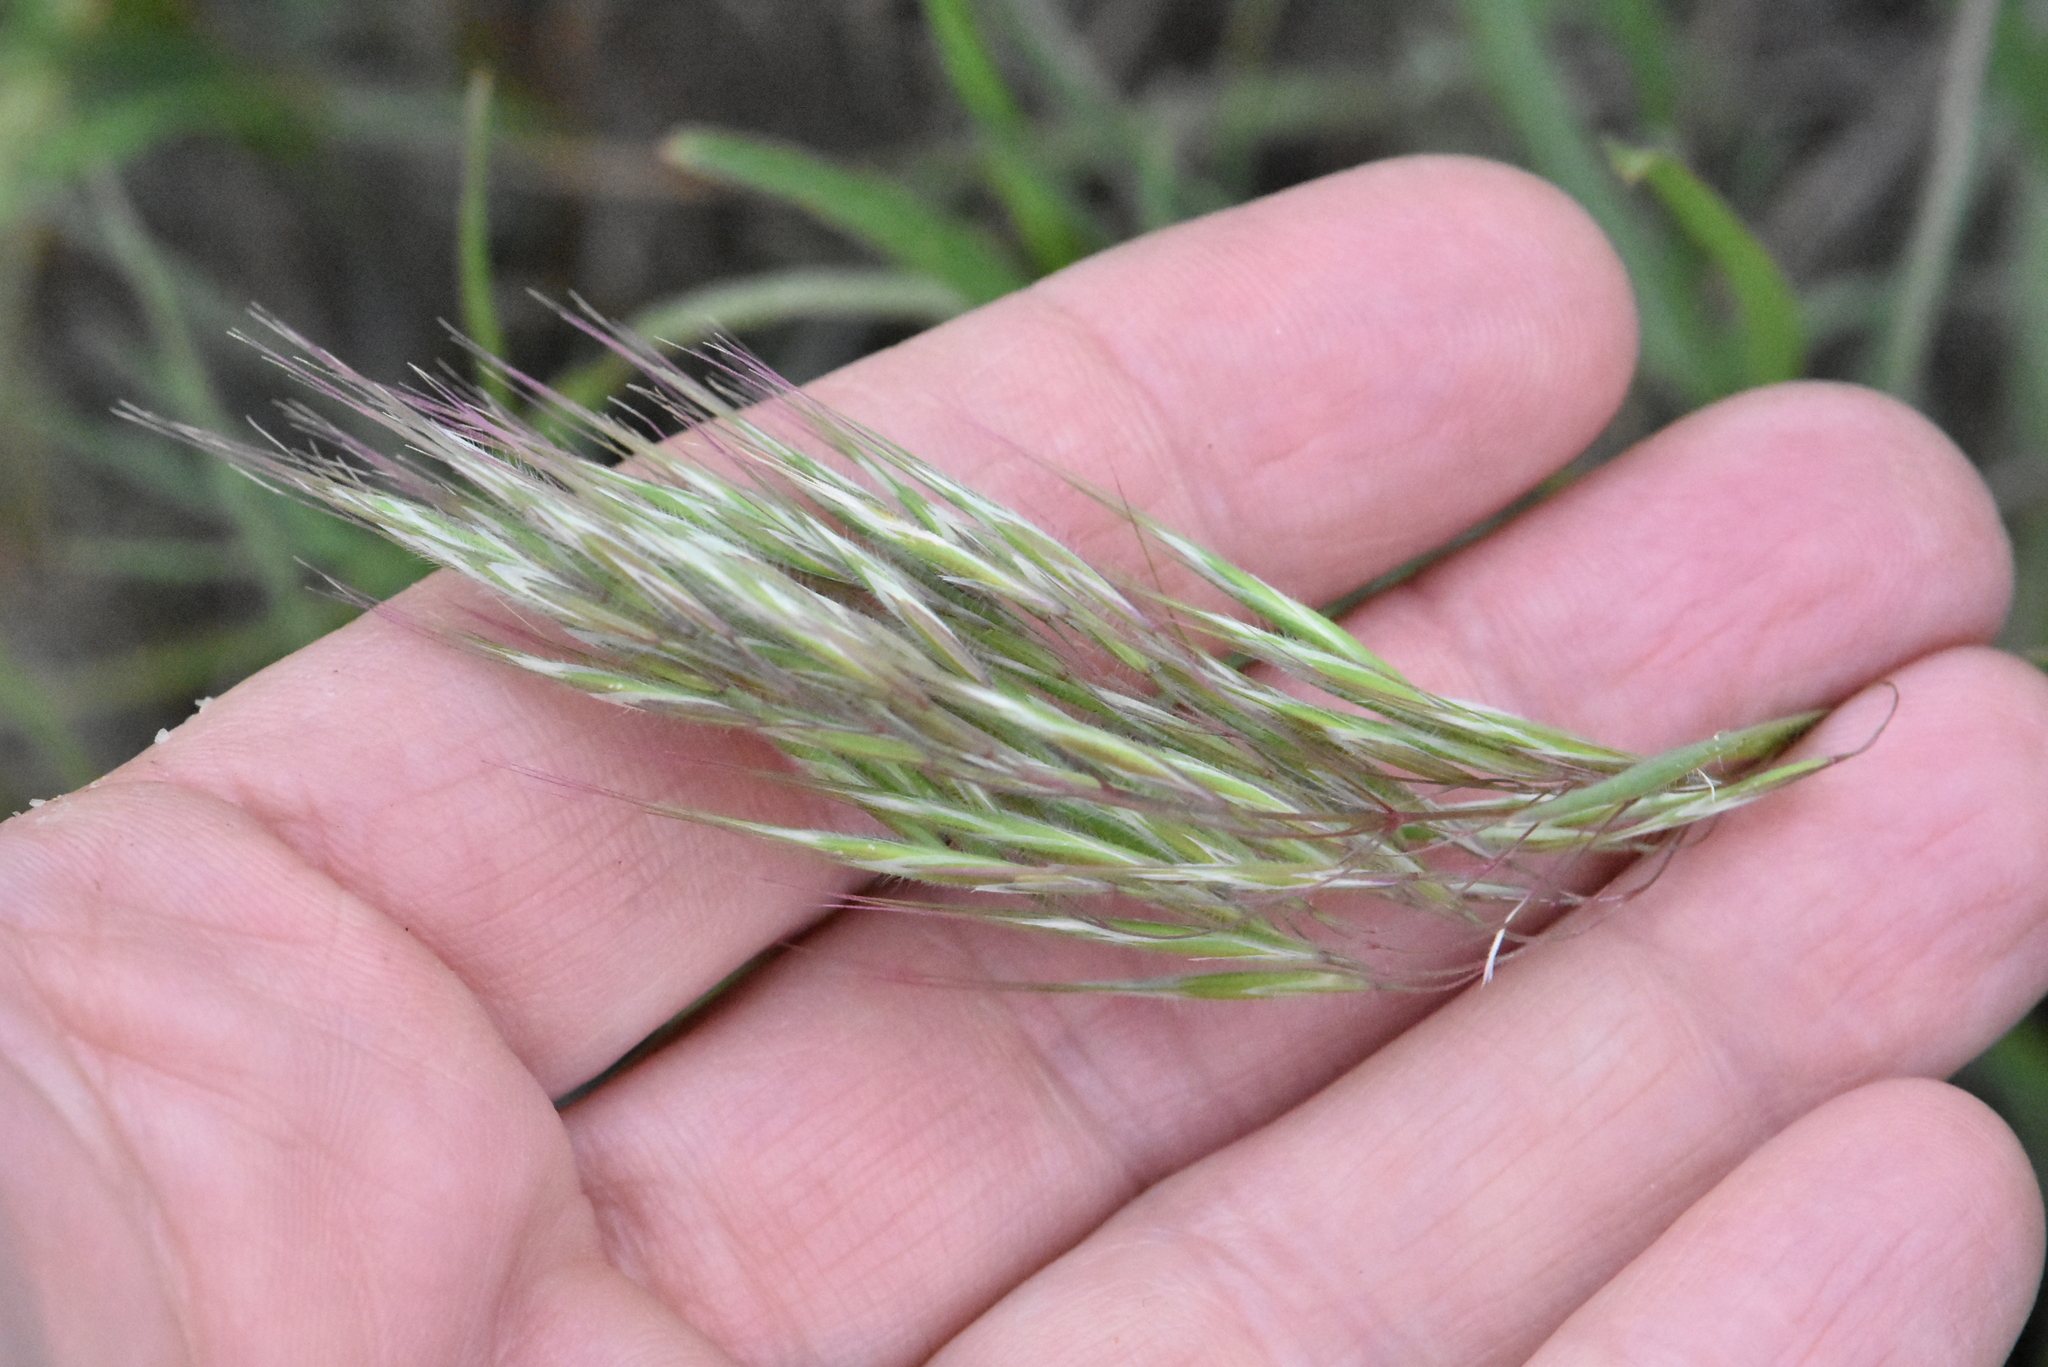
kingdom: Plantae
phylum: Tracheophyta
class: Liliopsida
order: Poales
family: Poaceae
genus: Bromus
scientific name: Bromus tectorum
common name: Cheatgrass
